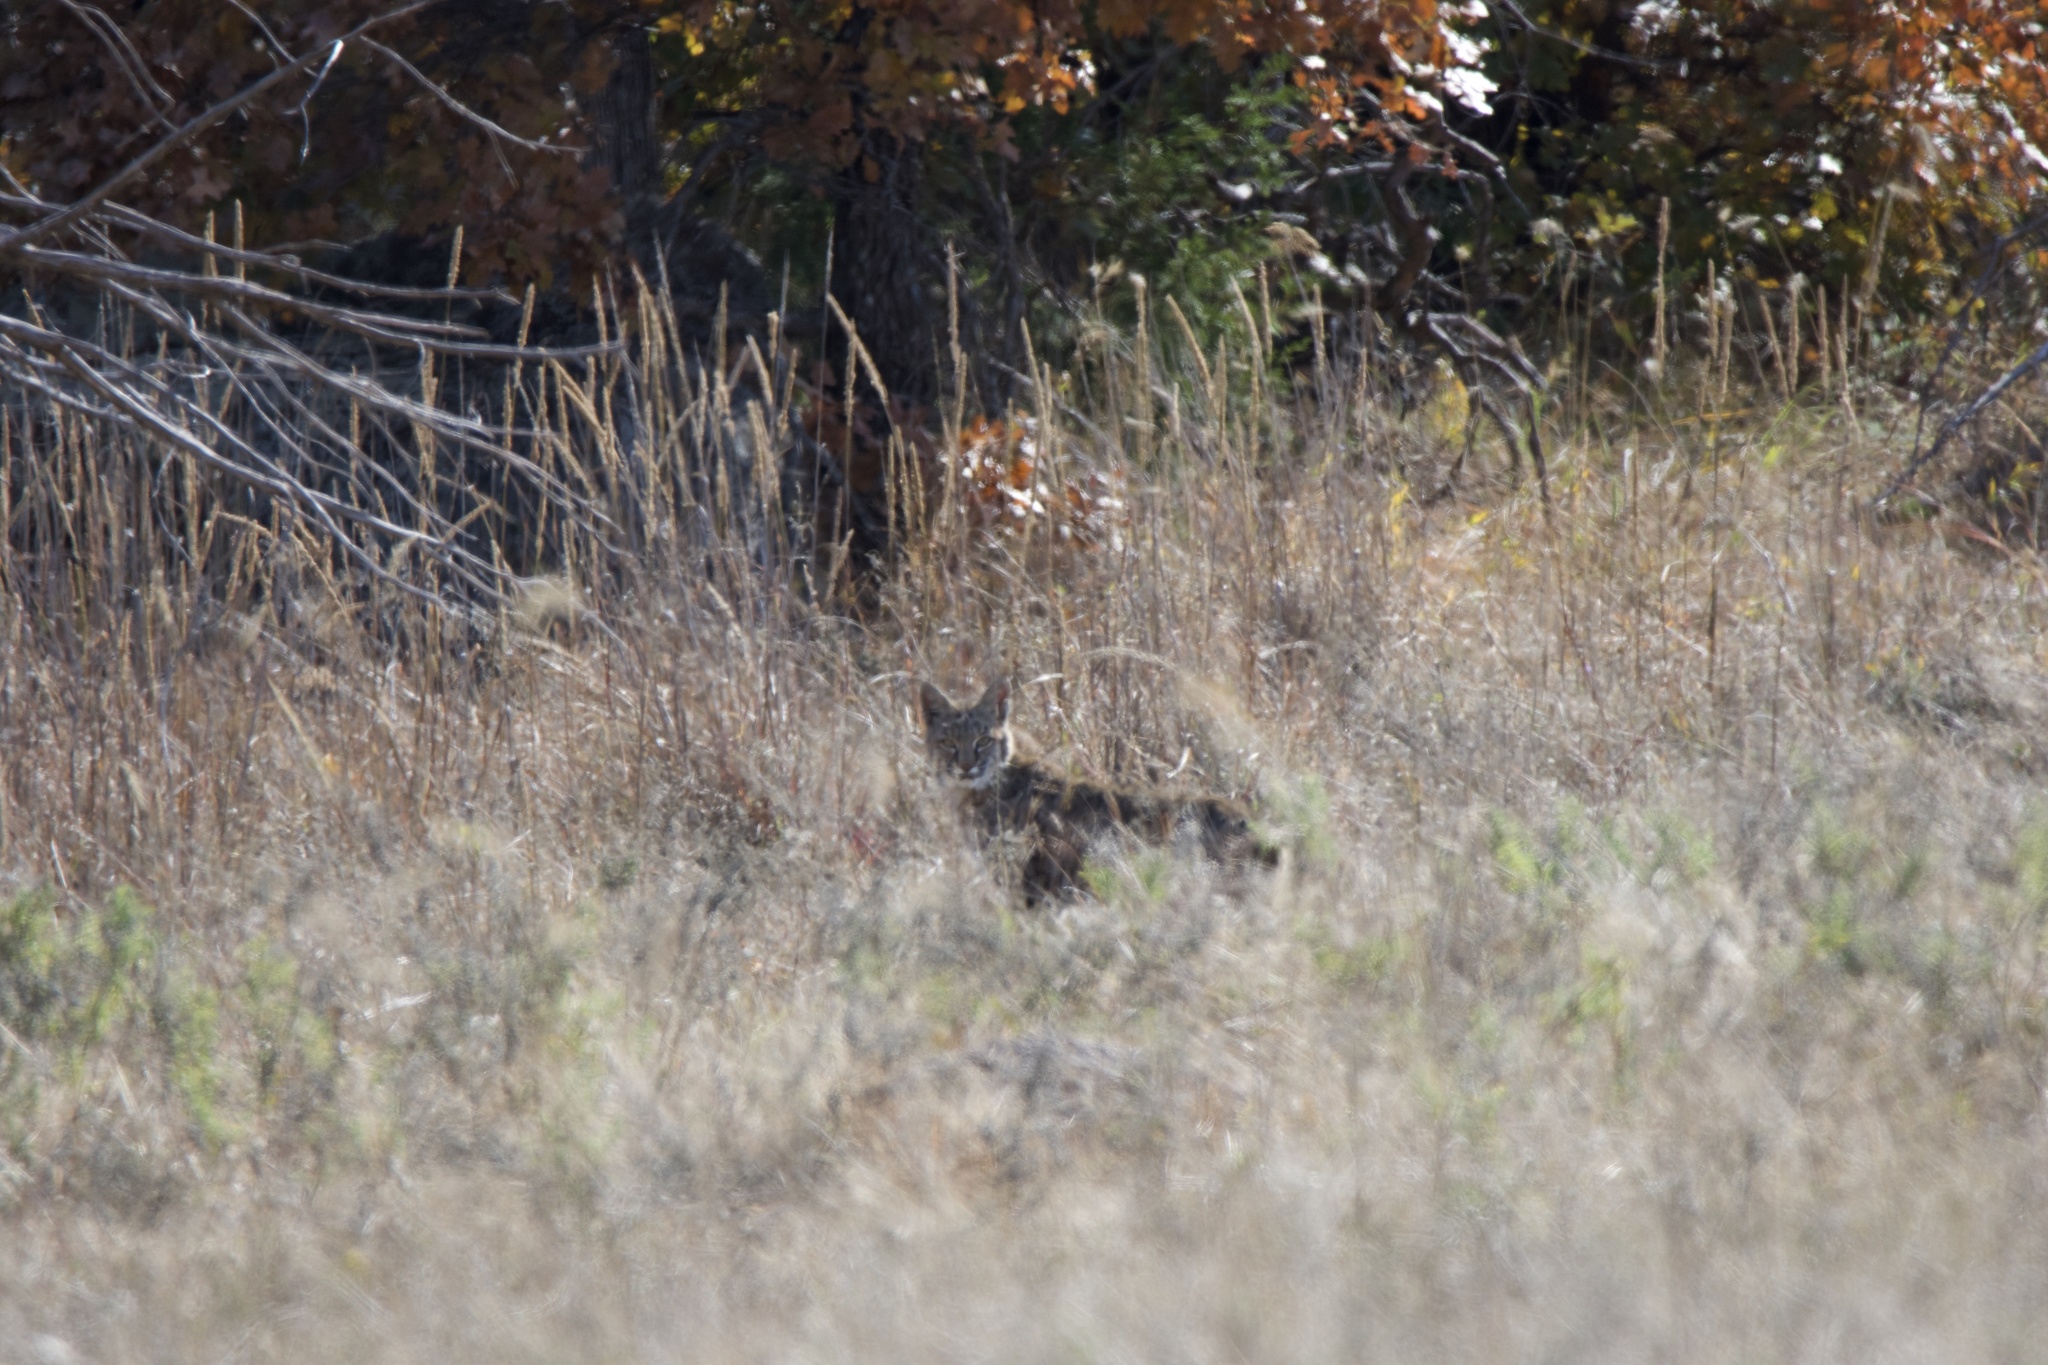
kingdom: Animalia
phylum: Chordata
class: Mammalia
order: Carnivora
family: Felidae
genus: Lynx
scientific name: Lynx rufus
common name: Bobcat
